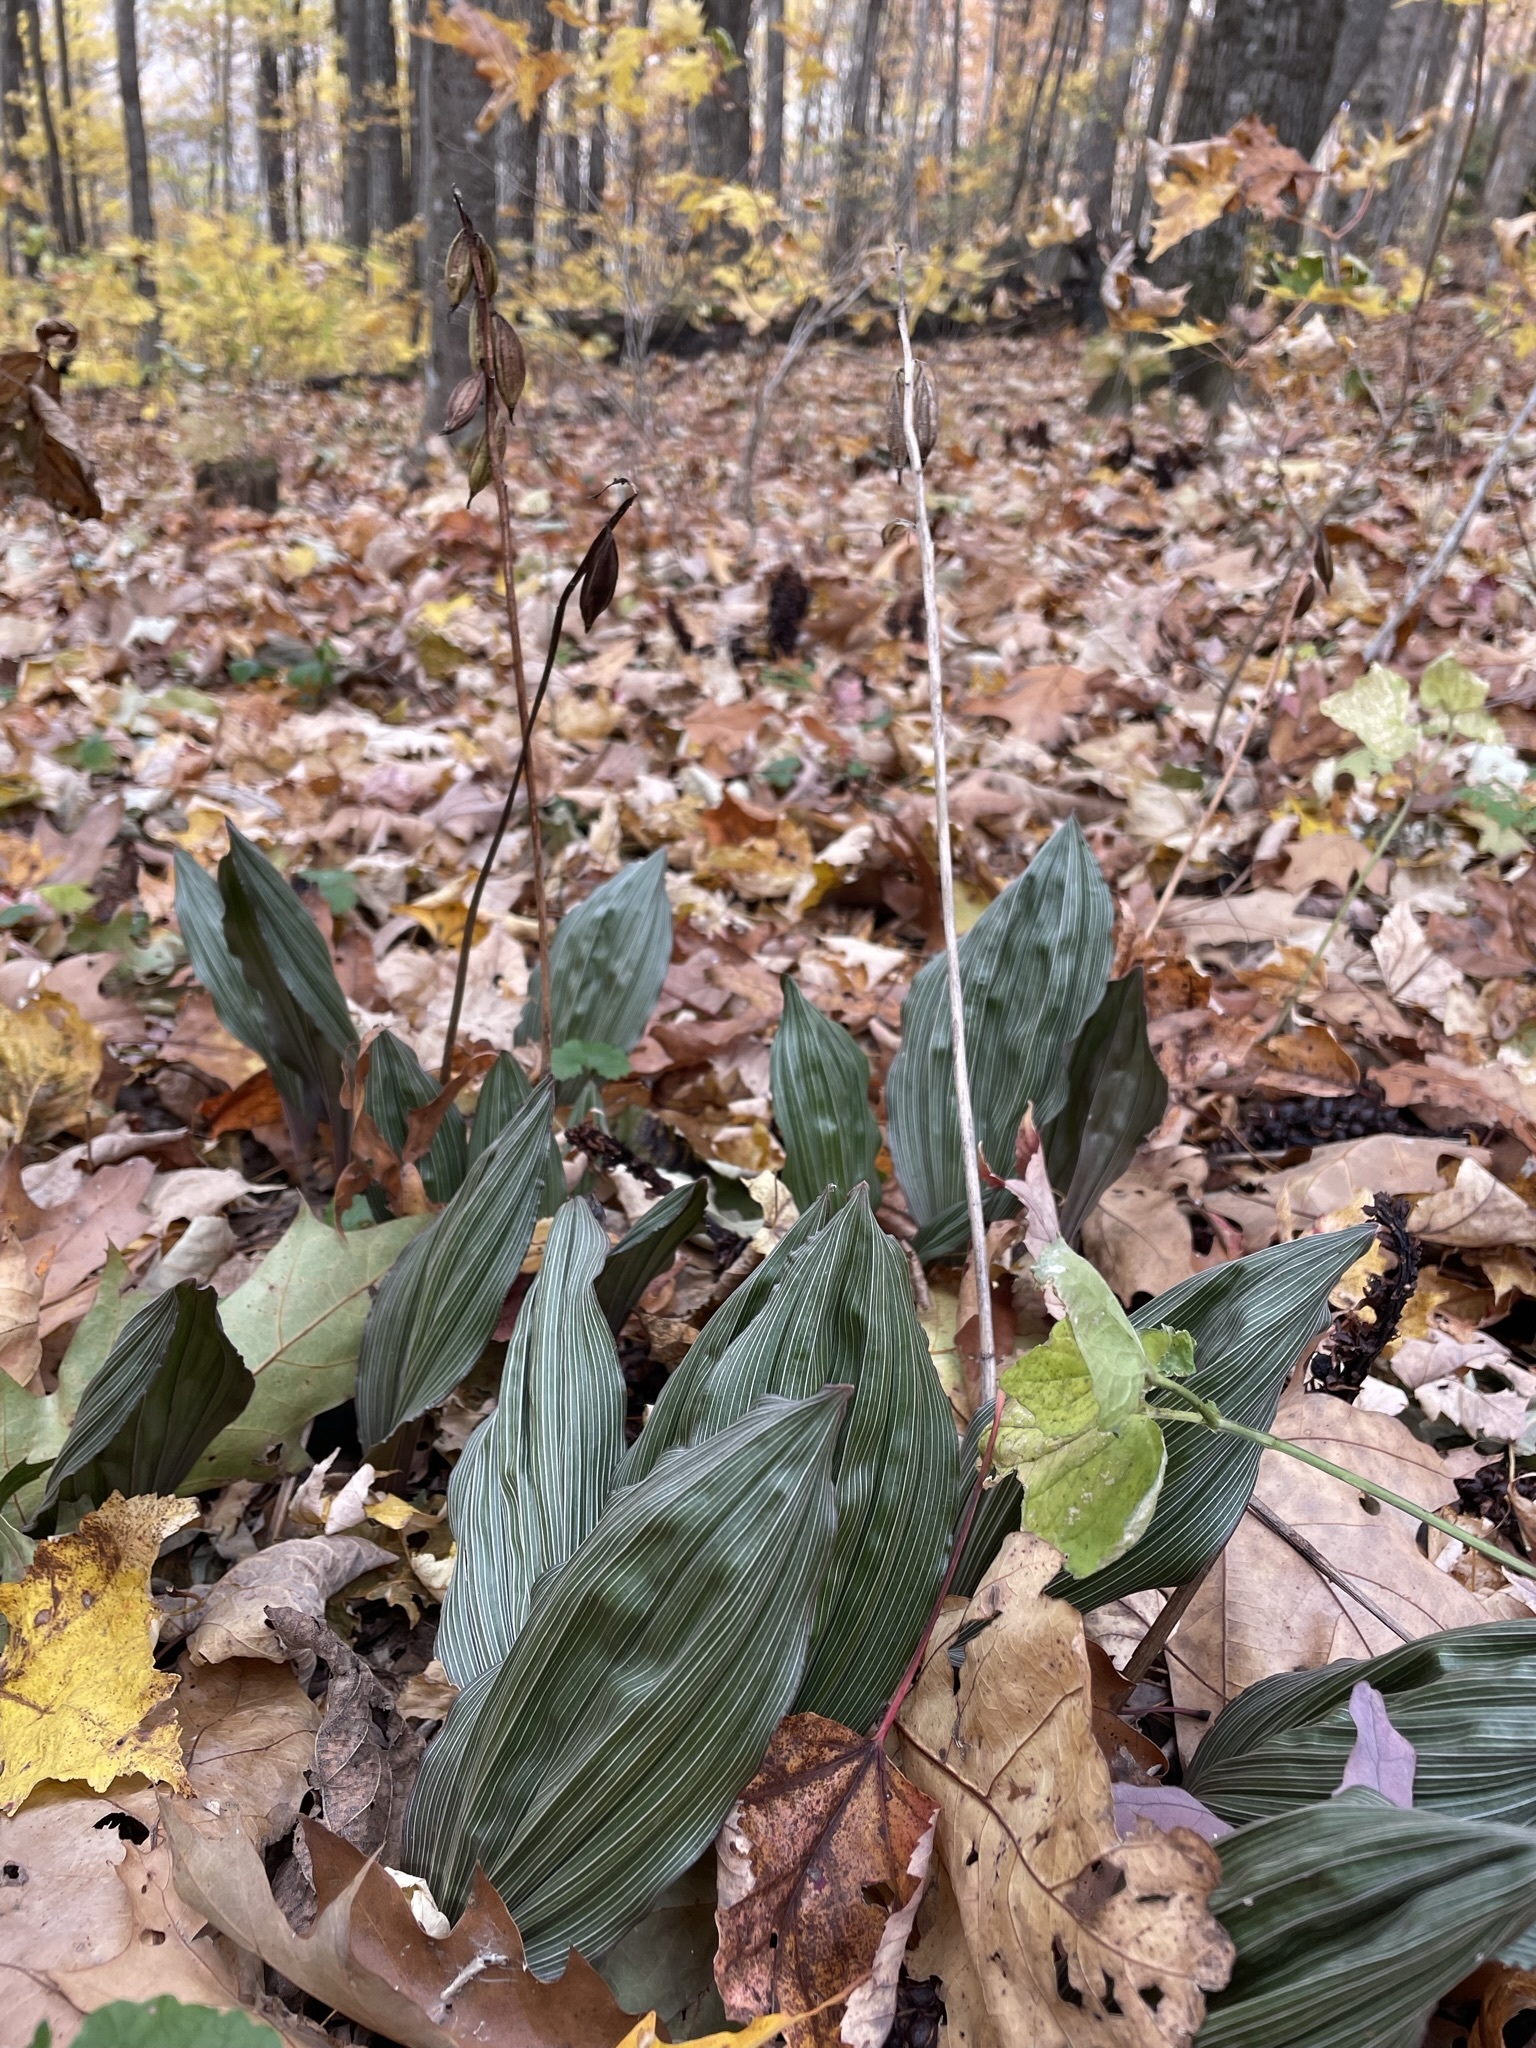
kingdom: Plantae
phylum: Tracheophyta
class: Liliopsida
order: Asparagales
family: Orchidaceae
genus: Aplectrum
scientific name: Aplectrum hyemale
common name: Adam-and-eve
